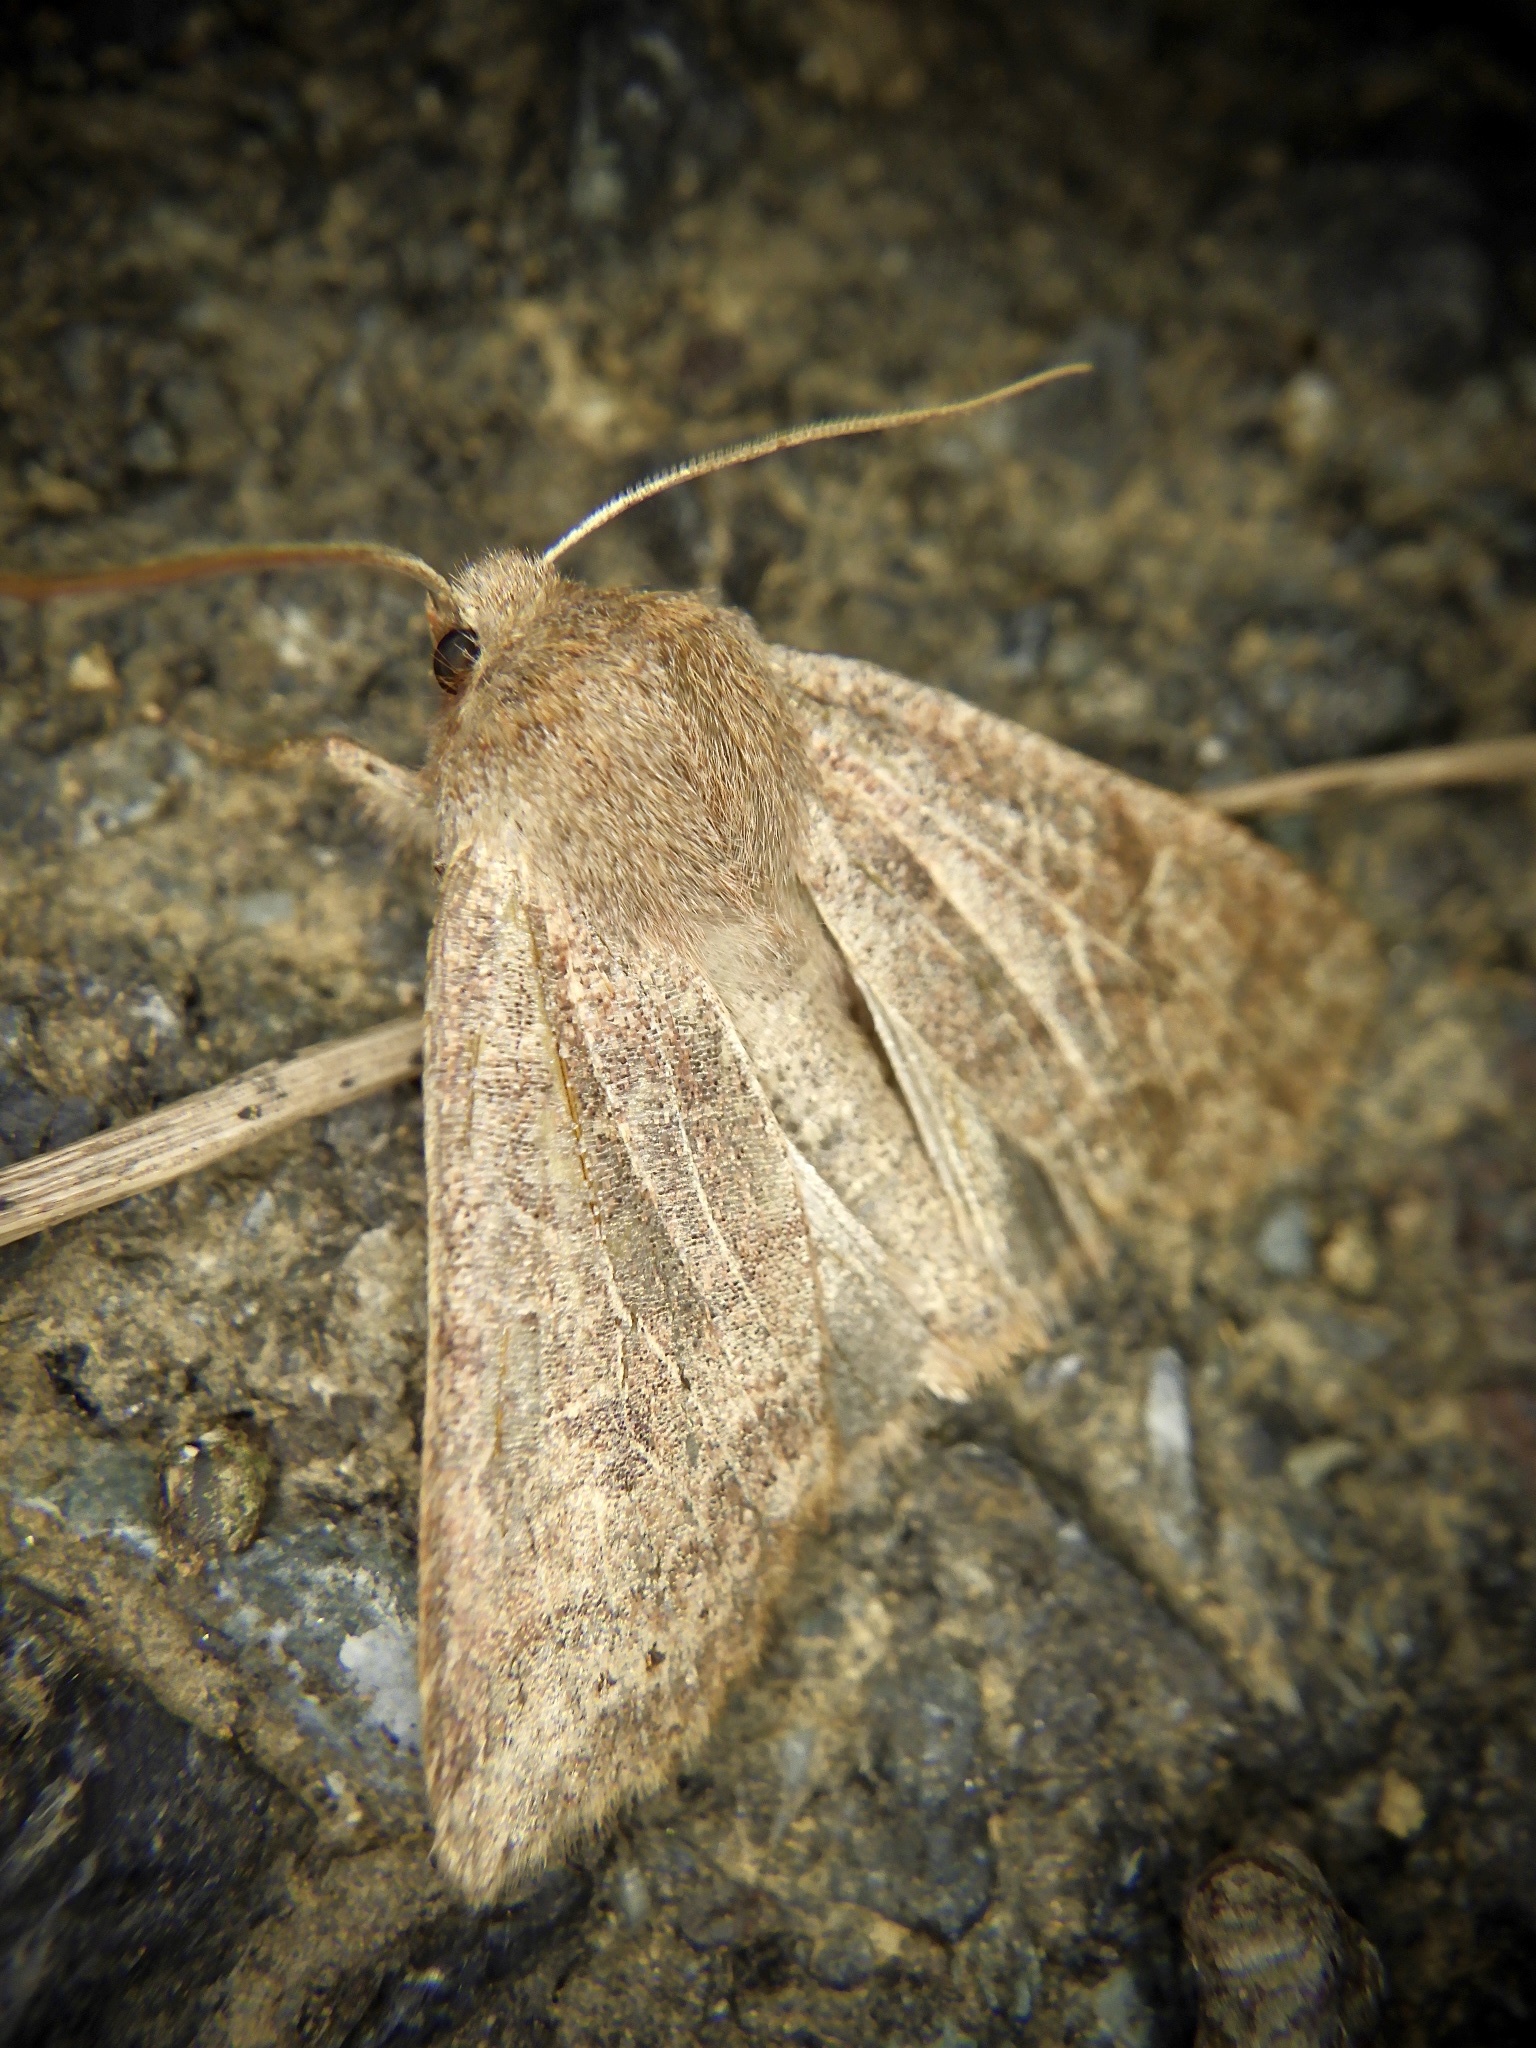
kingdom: Animalia
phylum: Arthropoda
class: Insecta
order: Lepidoptera
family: Noctuidae
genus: Conistra
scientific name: Conistra fletcheri
